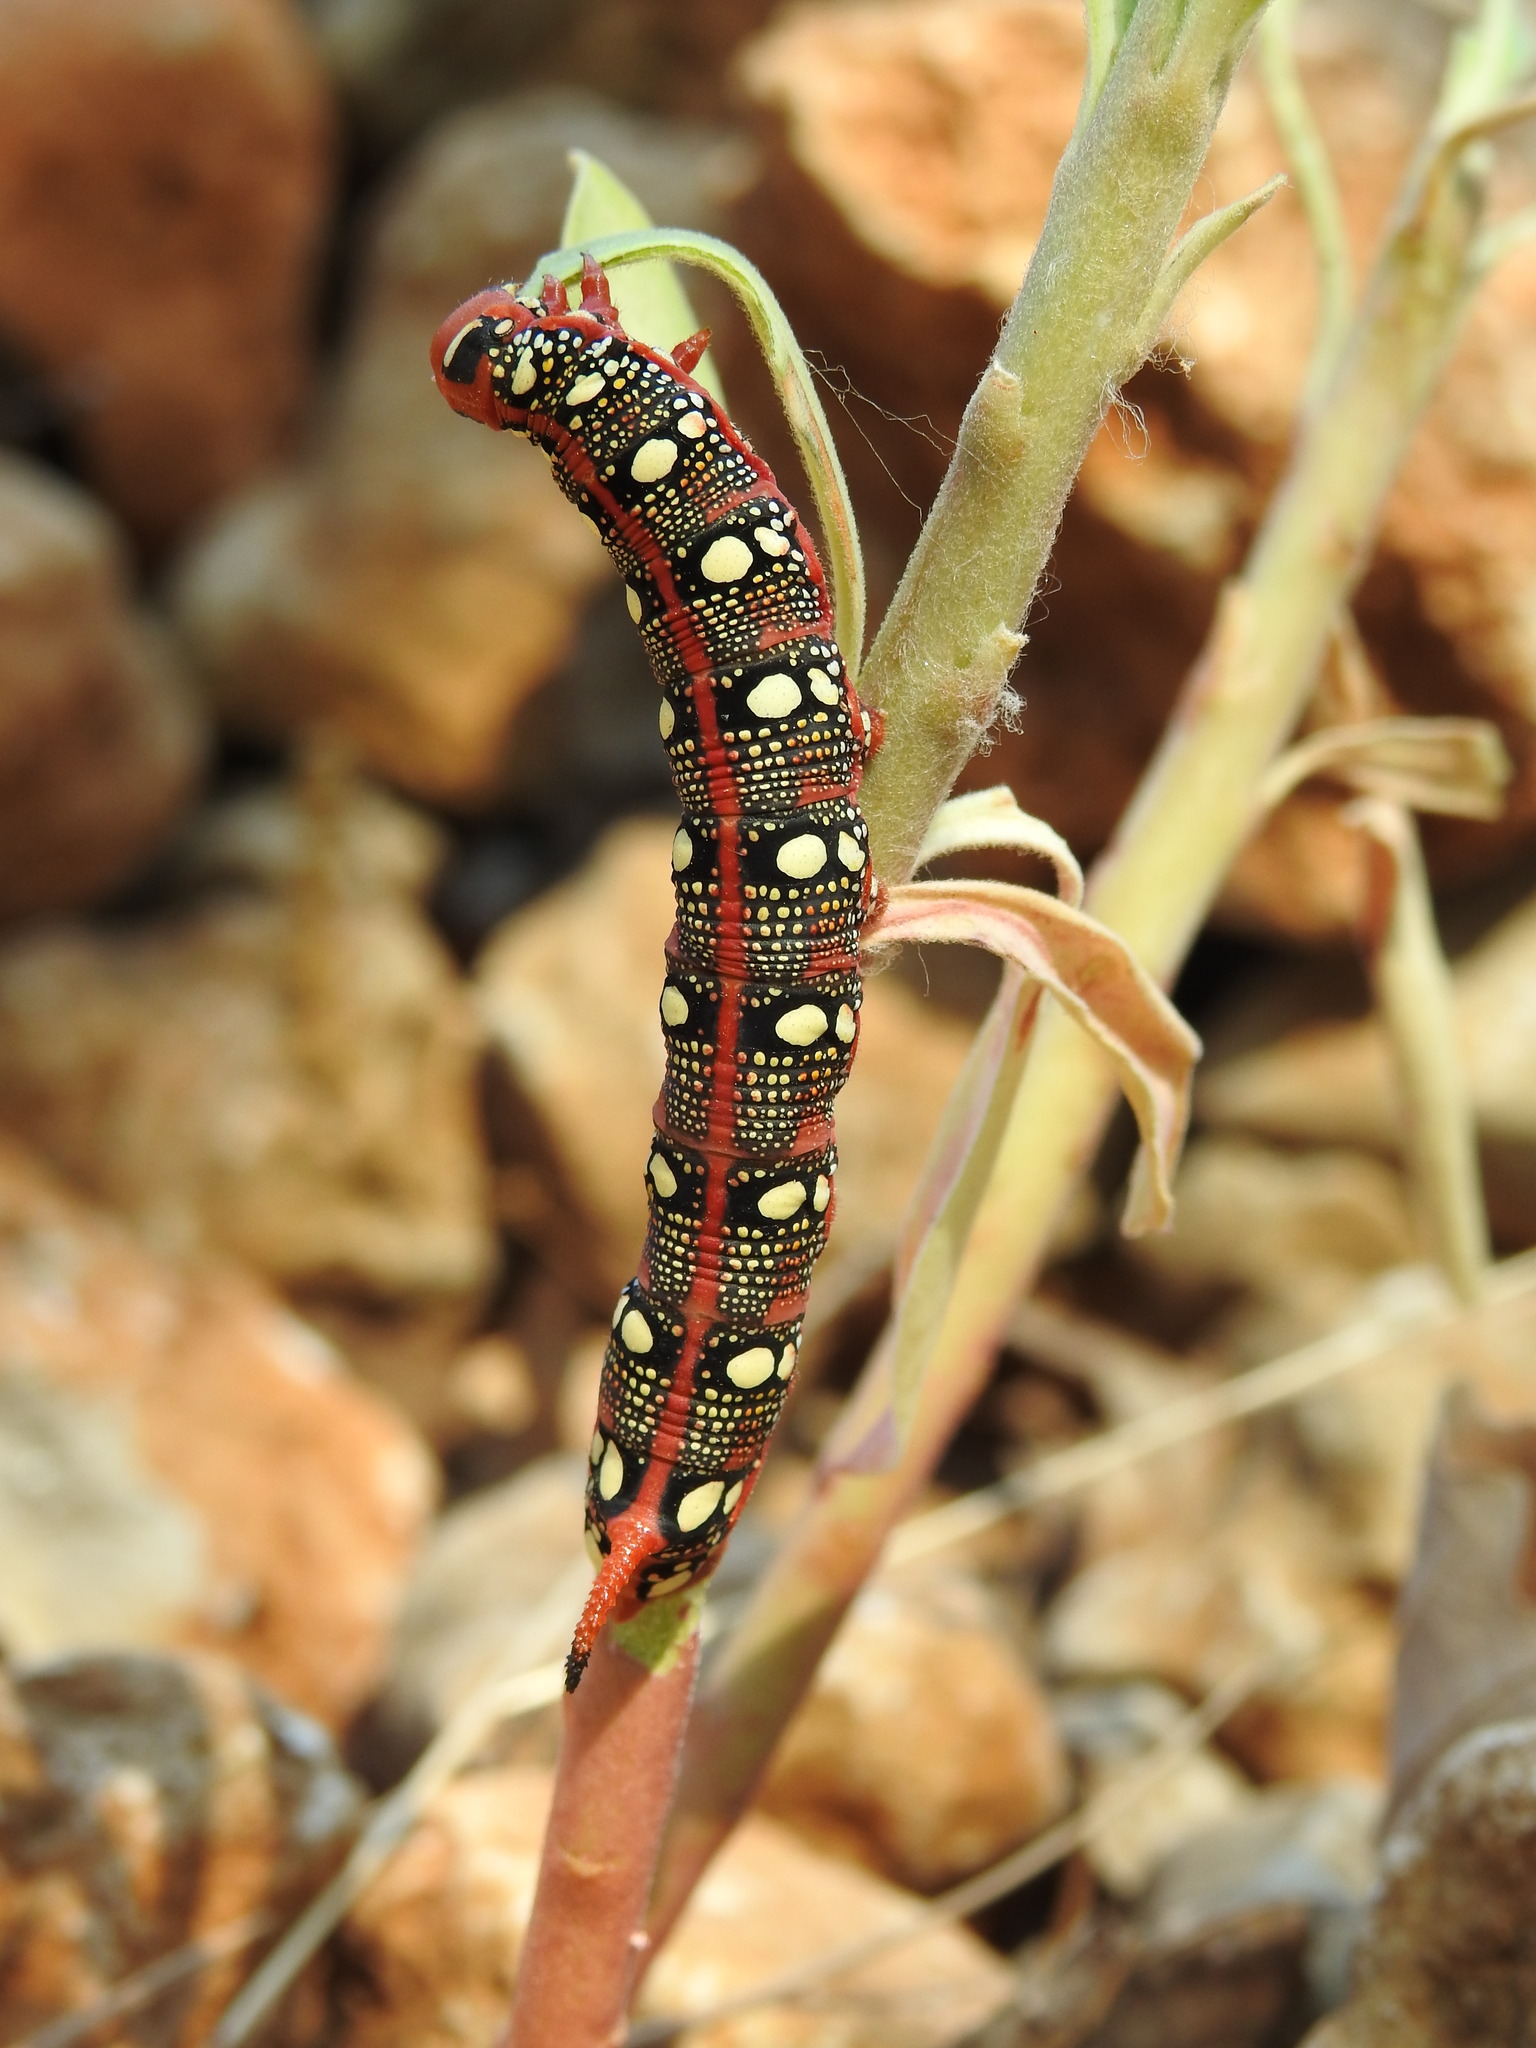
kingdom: Animalia
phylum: Arthropoda
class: Insecta
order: Lepidoptera
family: Sphingidae
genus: Hyles
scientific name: Hyles euphorbiae
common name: Spurge hawk-moth
